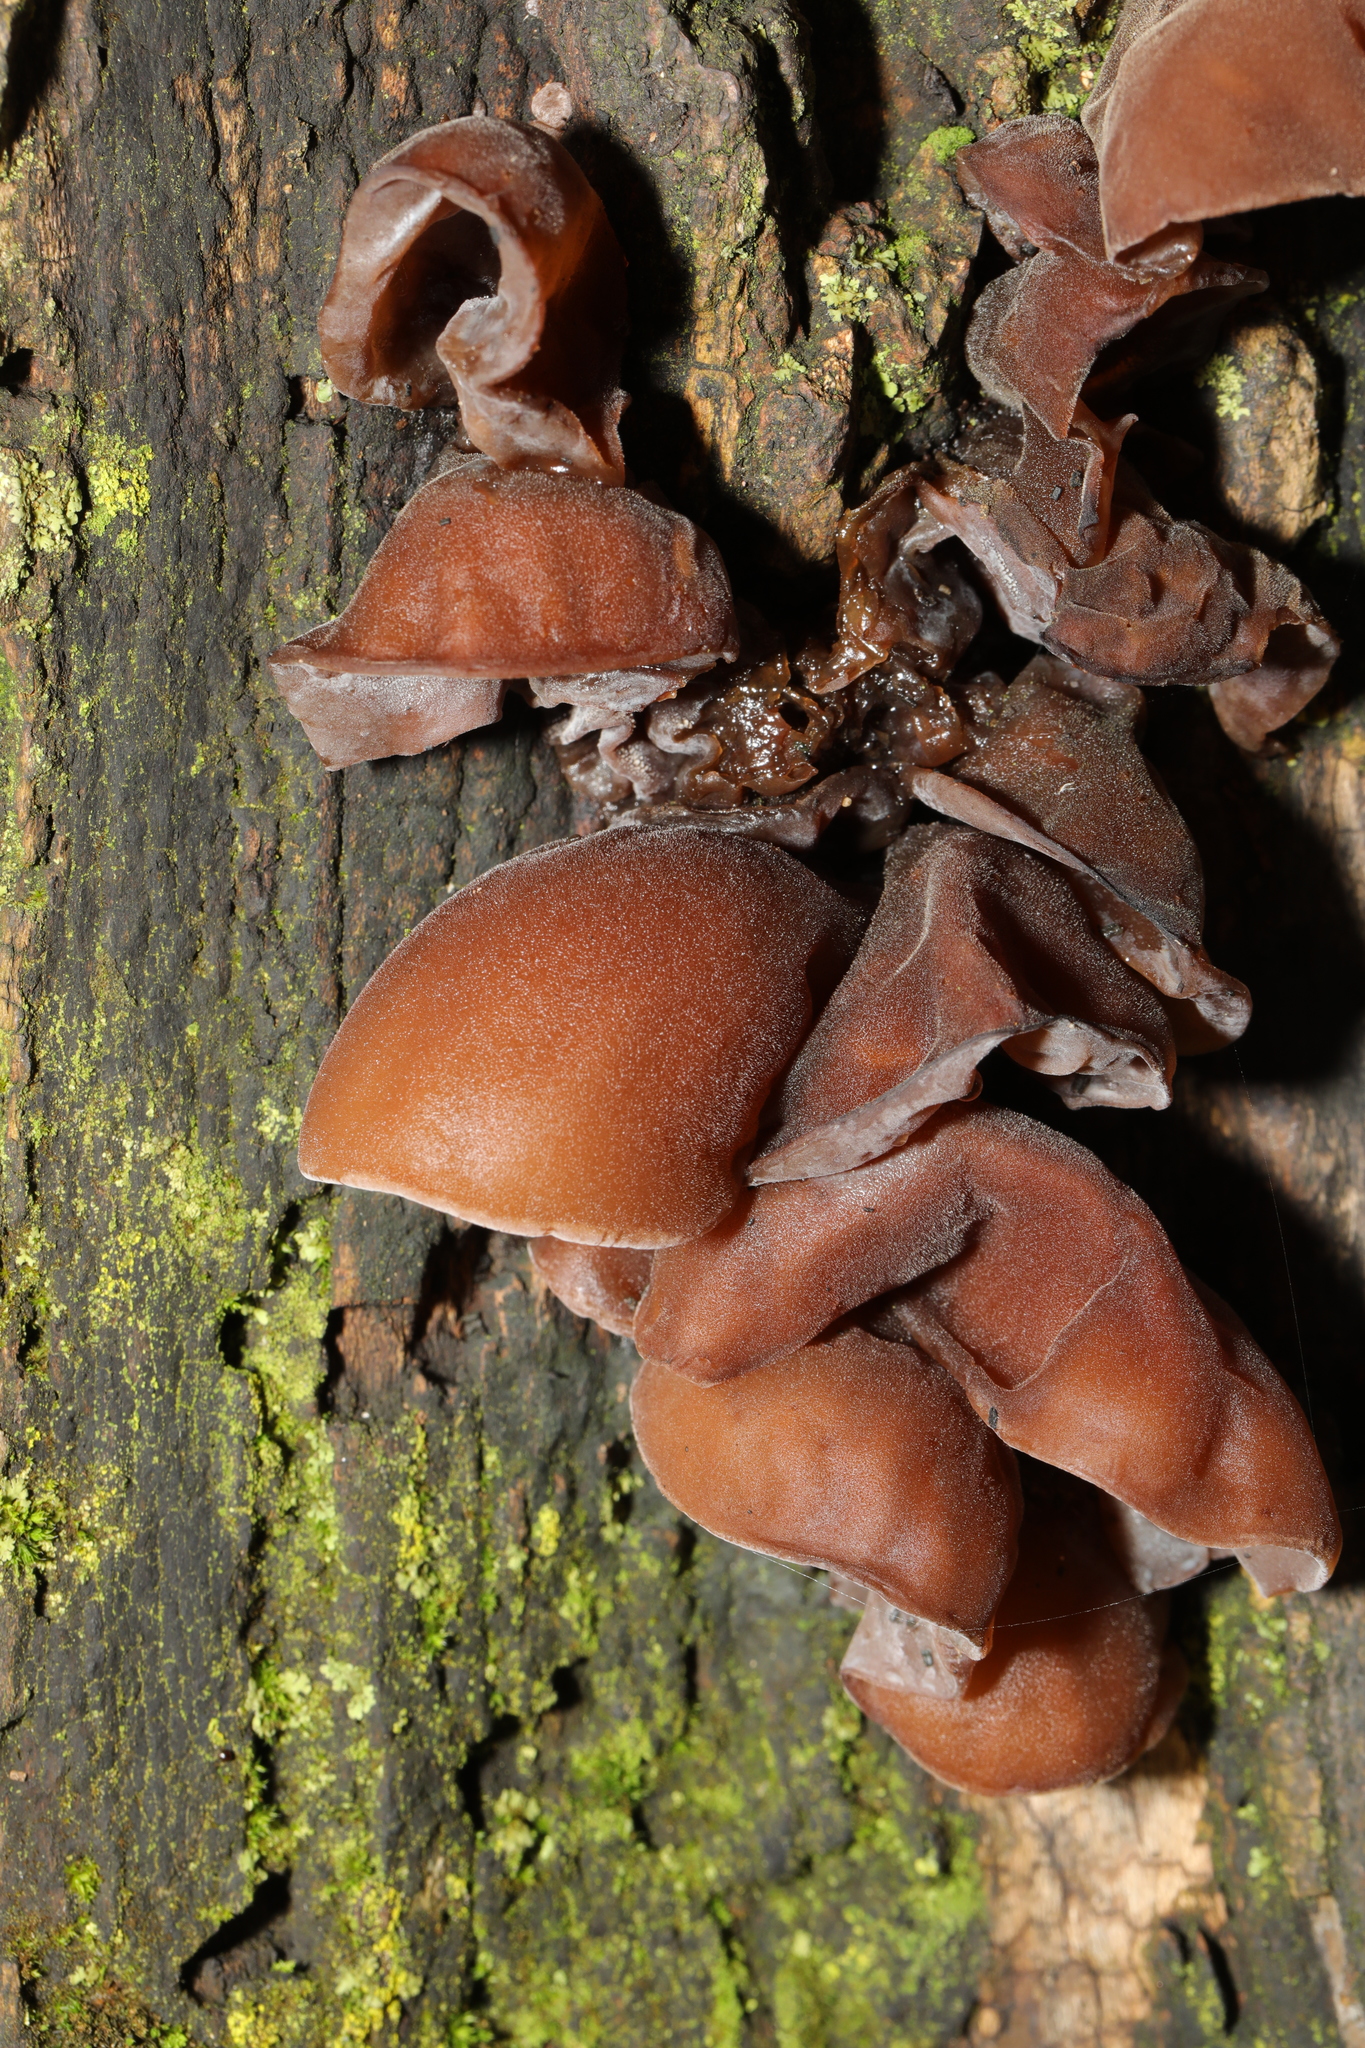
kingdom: Fungi
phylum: Basidiomycota
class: Agaricomycetes
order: Auriculariales
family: Auriculariaceae
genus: Auricularia
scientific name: Auricularia auricula-judae
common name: Jelly ear
